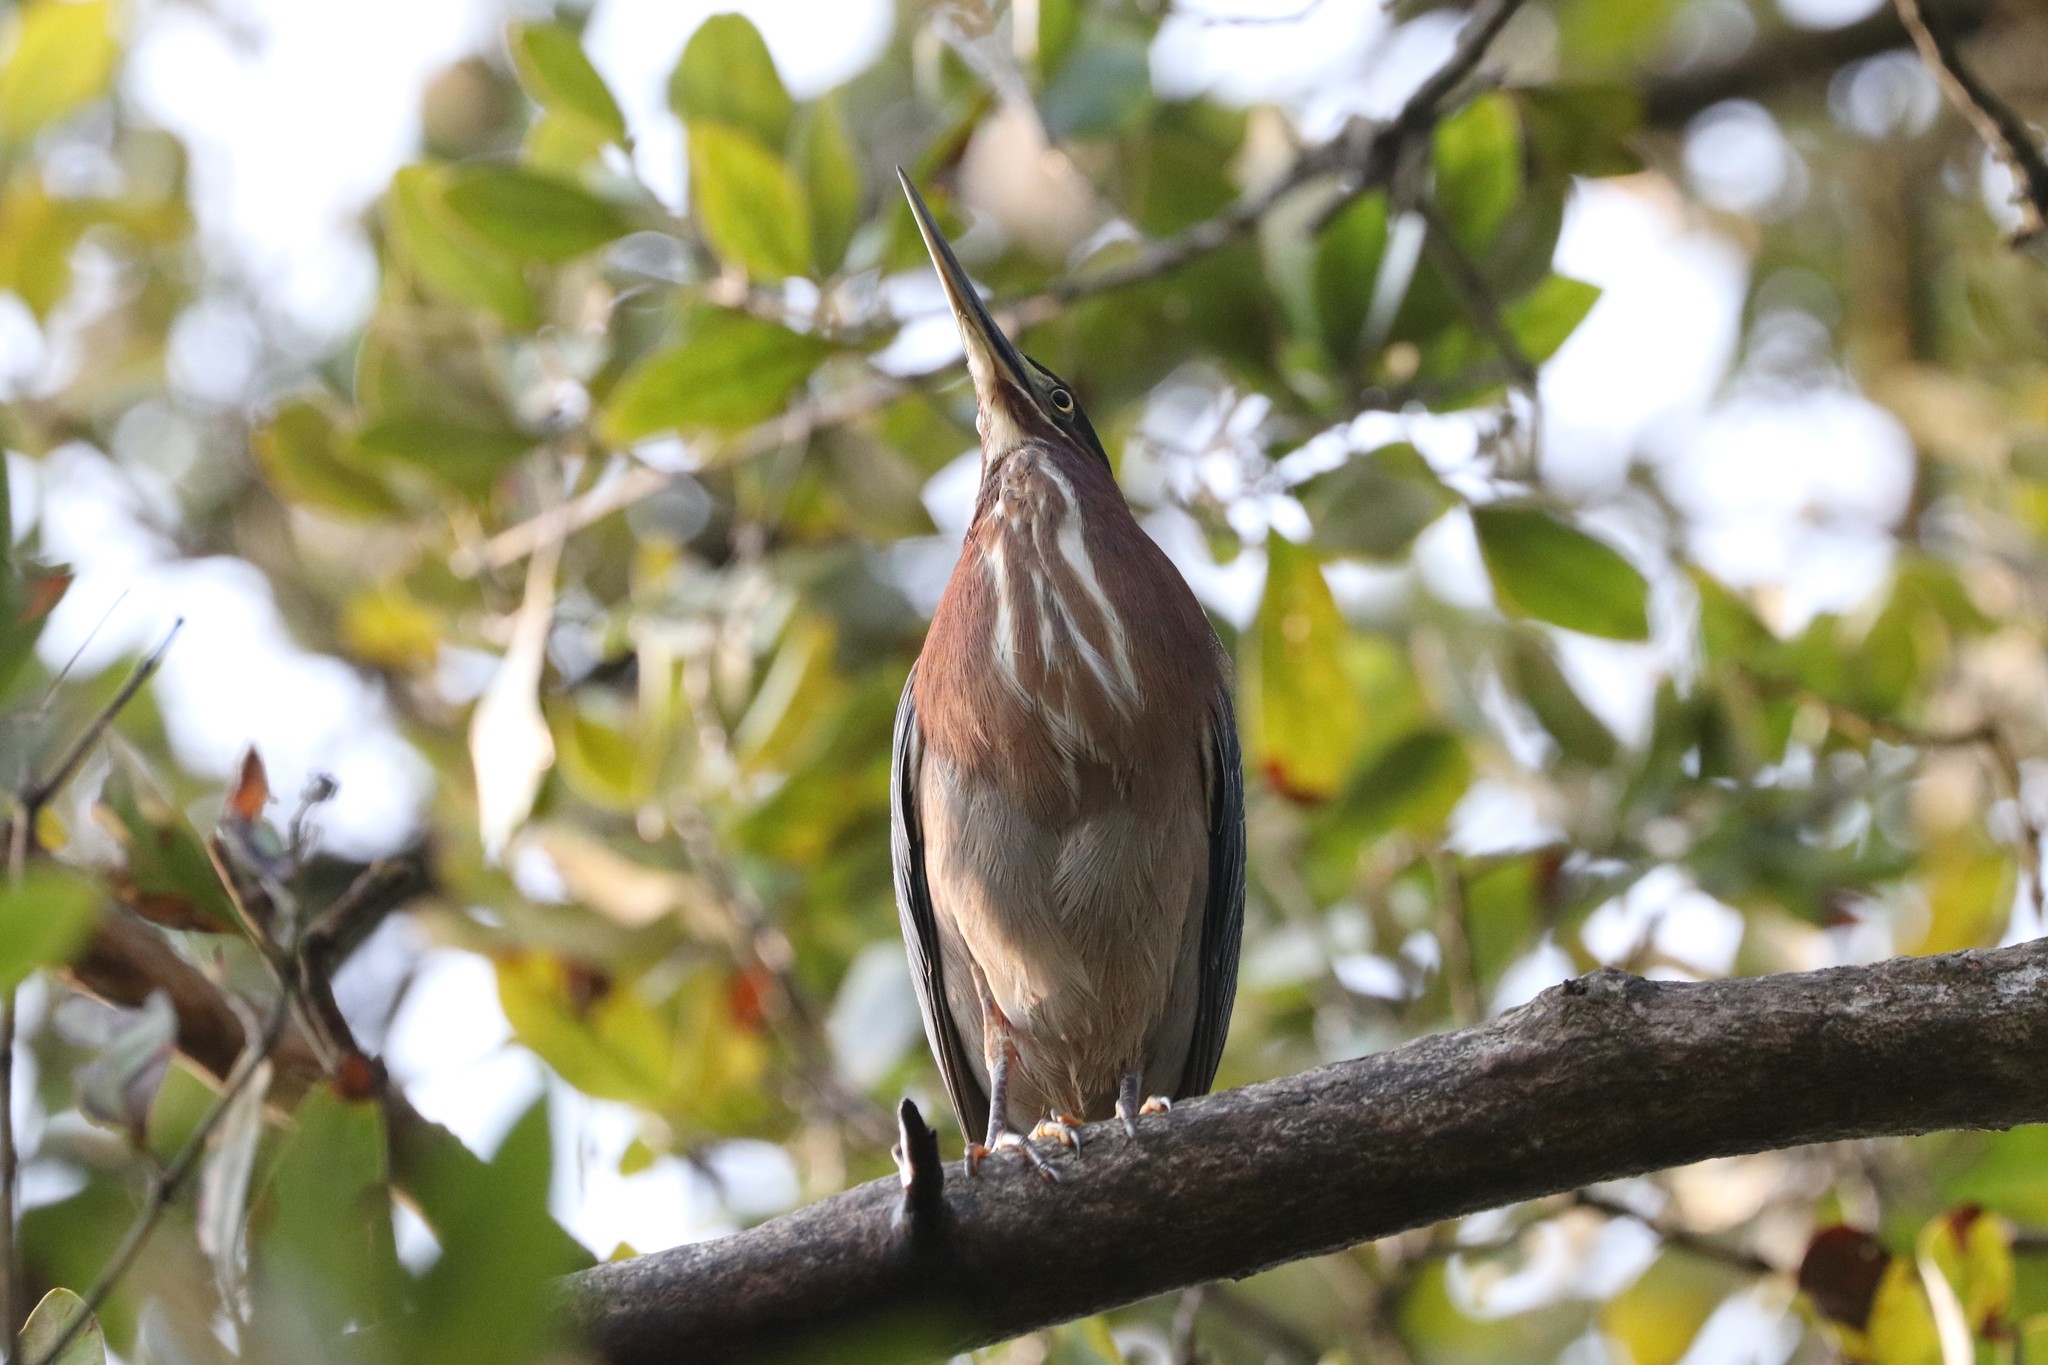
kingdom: Animalia
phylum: Chordata
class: Aves
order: Pelecaniformes
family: Ardeidae
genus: Butorides
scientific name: Butorides virescens
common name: Green heron
